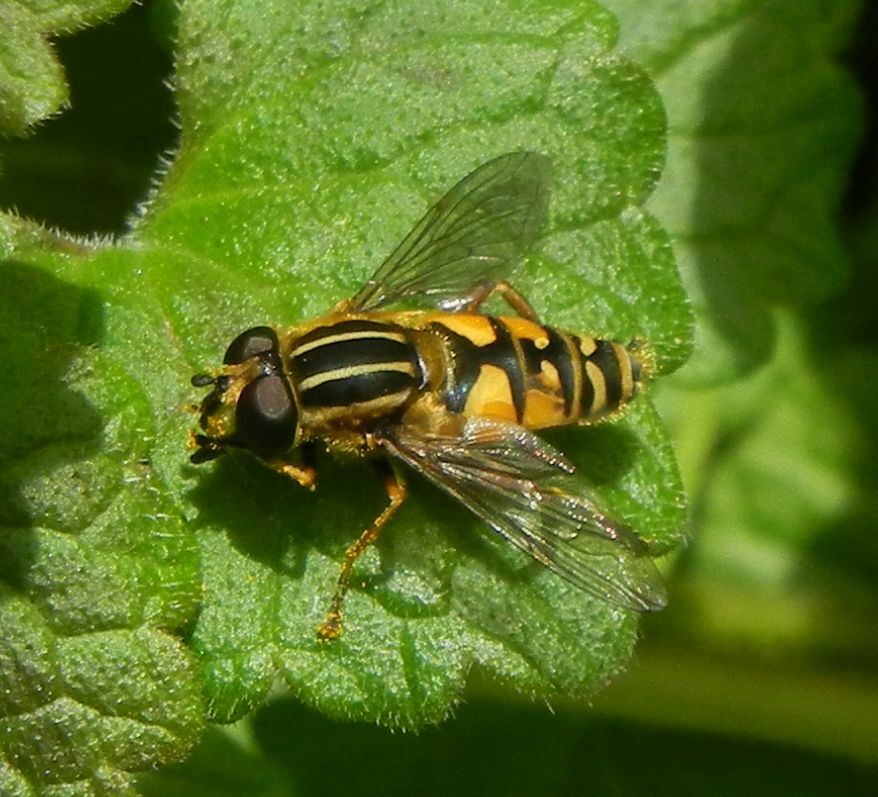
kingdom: Animalia
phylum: Arthropoda
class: Insecta
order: Diptera
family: Syrphidae
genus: Helophilus
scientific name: Helophilus pendulus
